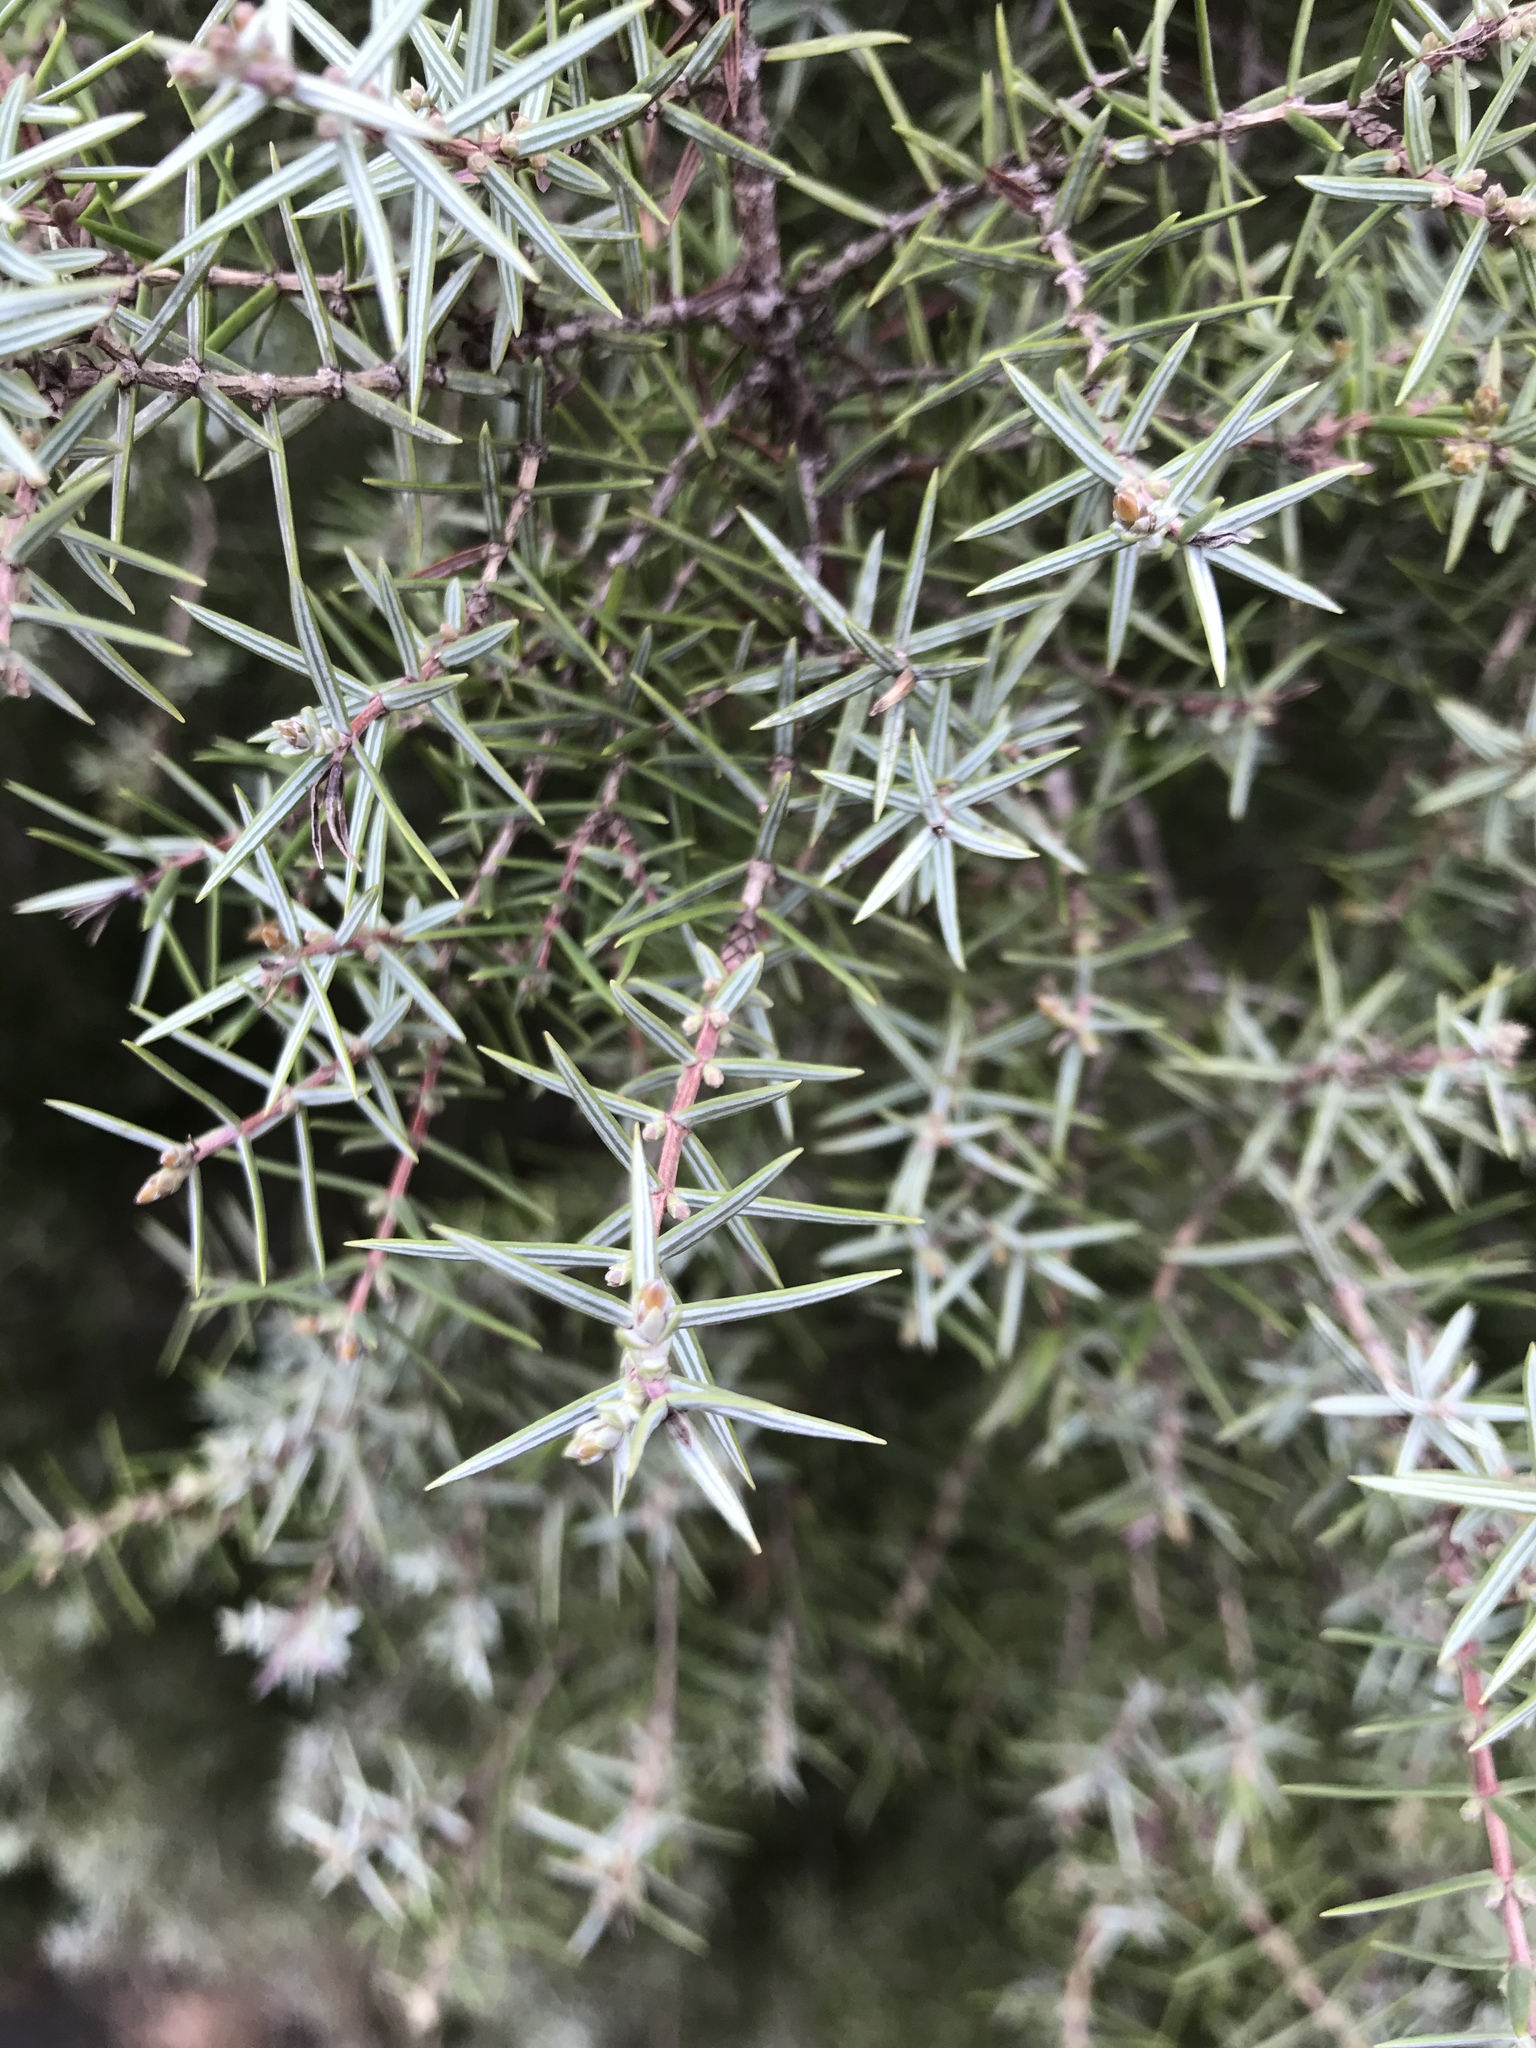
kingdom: Plantae
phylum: Tracheophyta
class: Pinopsida
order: Pinales
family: Cupressaceae
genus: Juniperus
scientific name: Juniperus oxycedrus
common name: Prickly juniper
